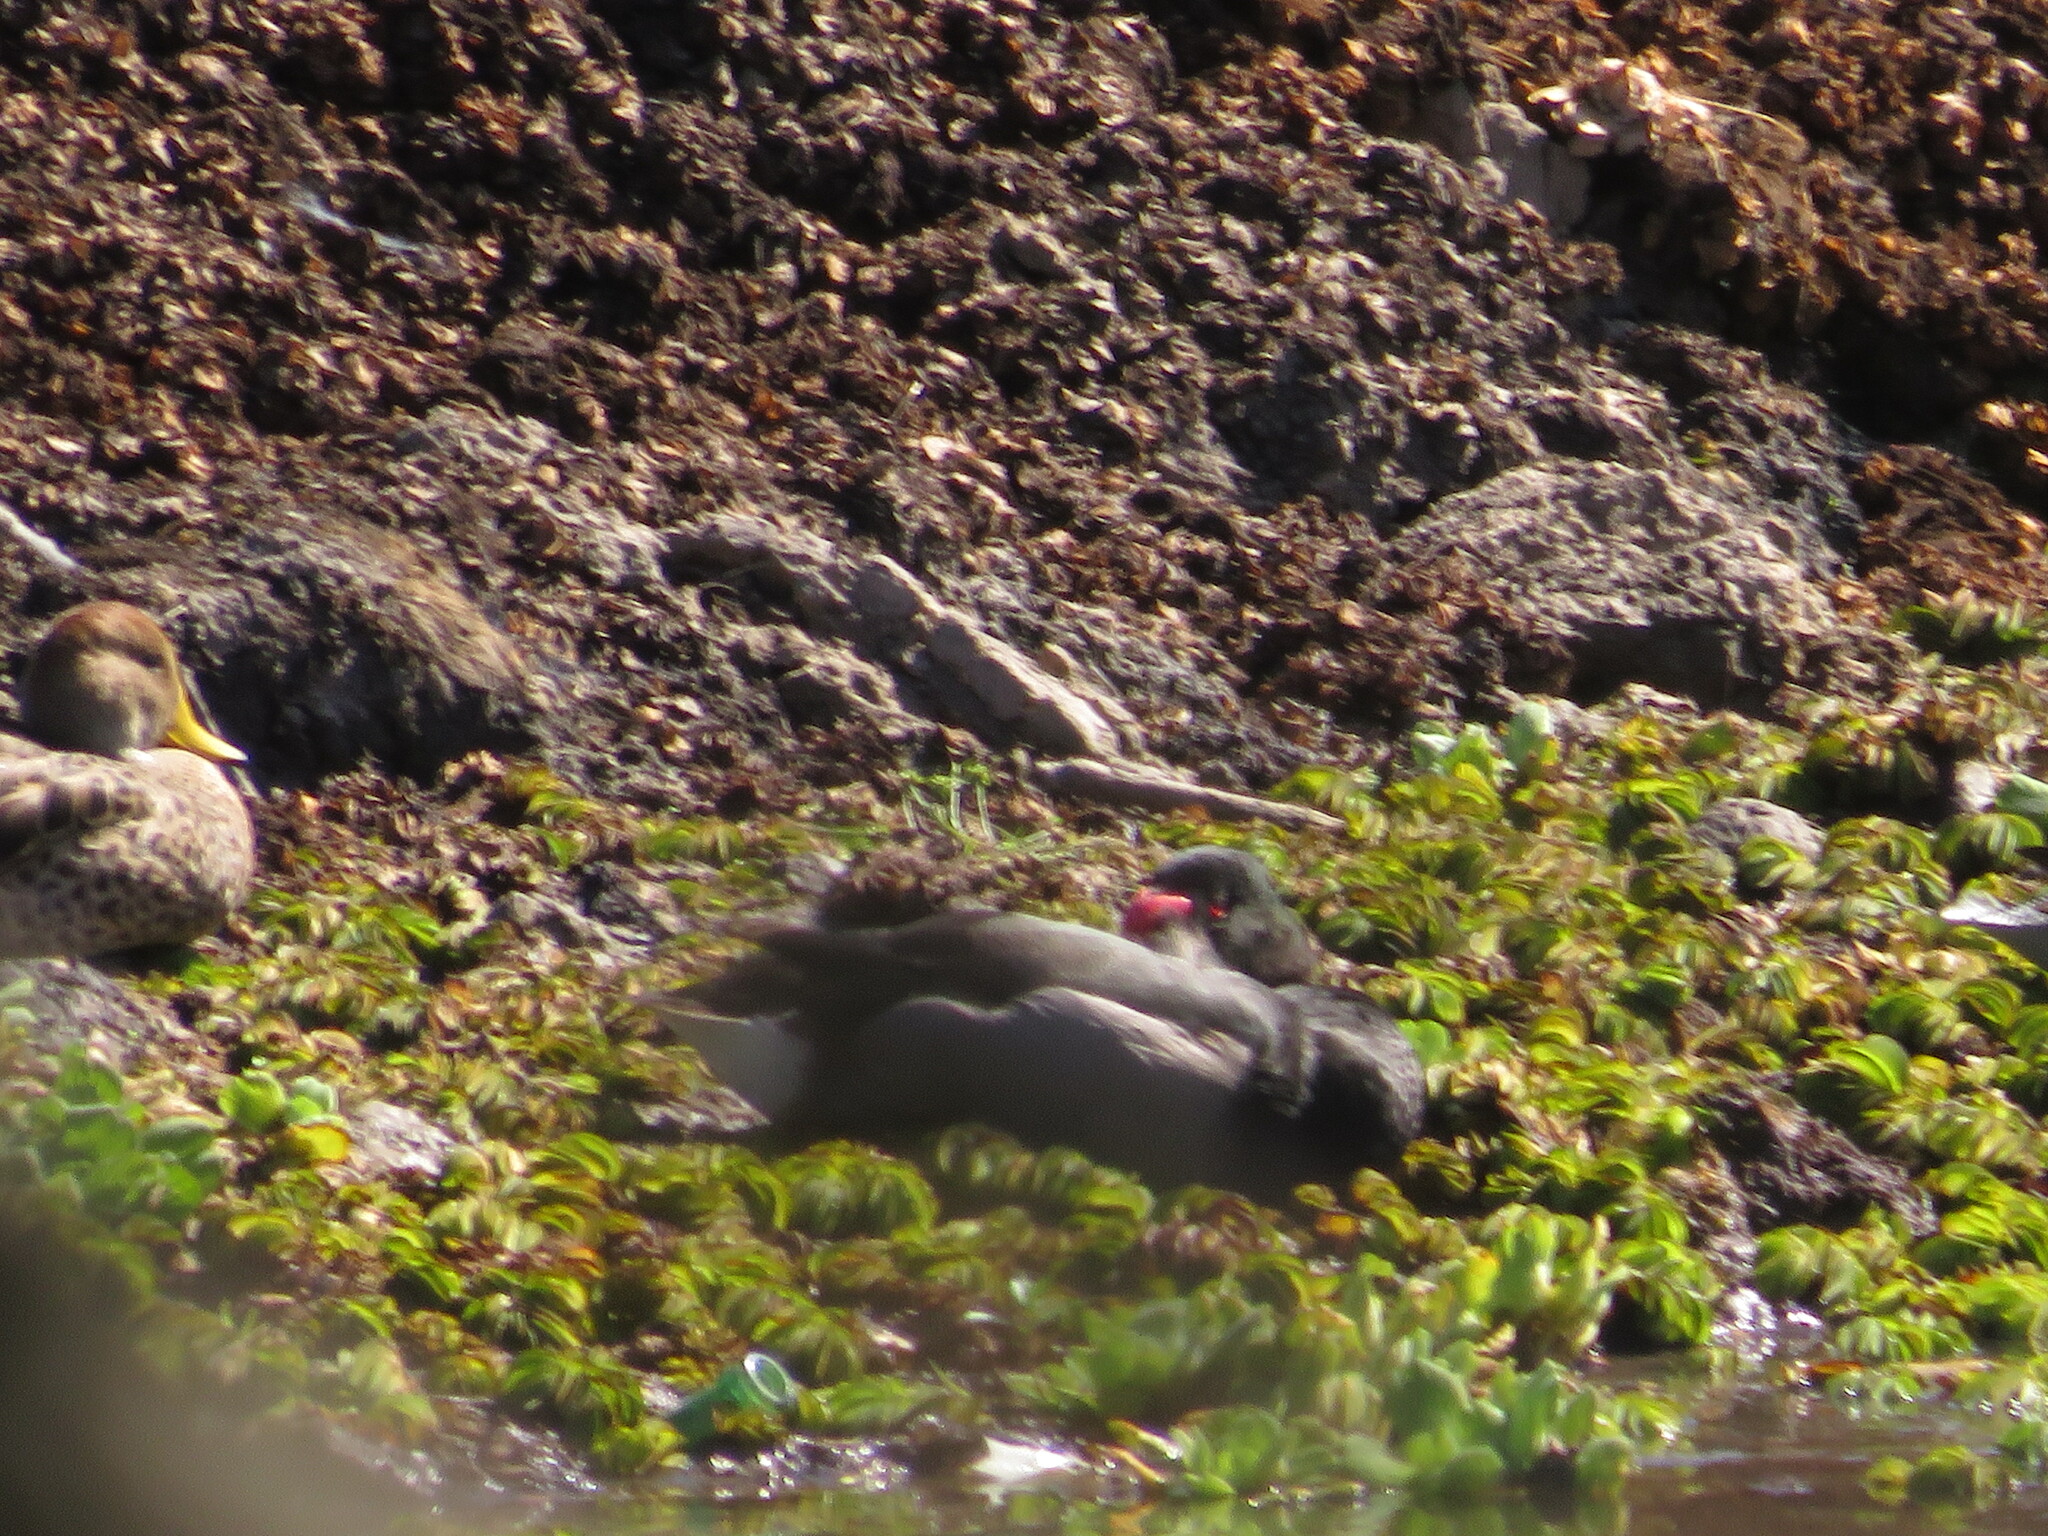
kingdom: Animalia
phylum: Chordata
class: Aves
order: Anseriformes
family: Anatidae
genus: Netta
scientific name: Netta peposaca
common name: Rosy-billed pochard
